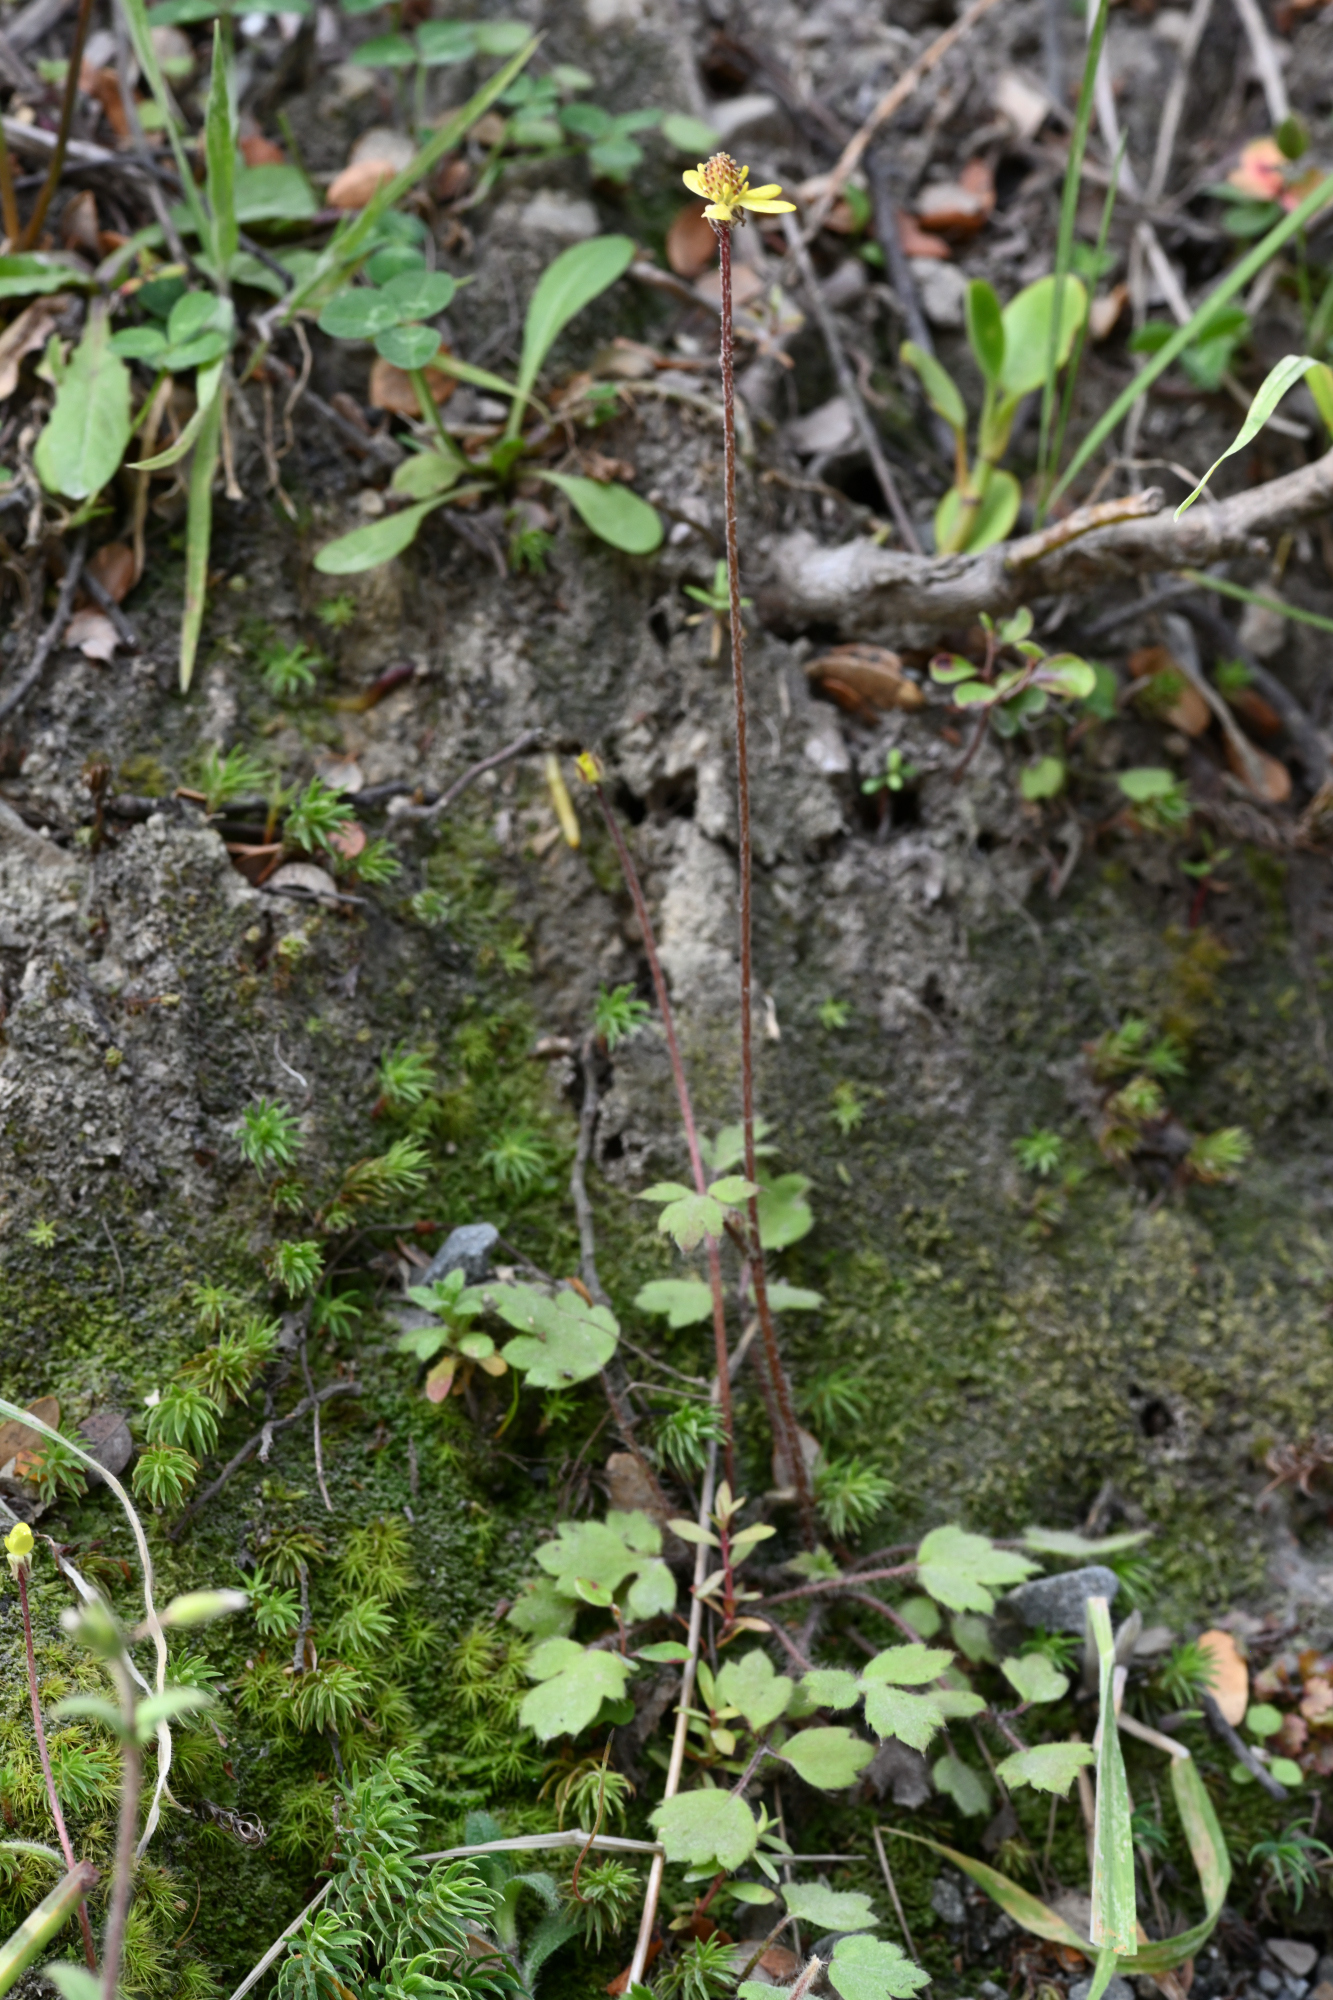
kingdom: Plantae
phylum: Tracheophyta
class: Magnoliopsida
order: Ranunculales
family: Ranunculaceae
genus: Ranunculus
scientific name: Ranunculus reflexus
